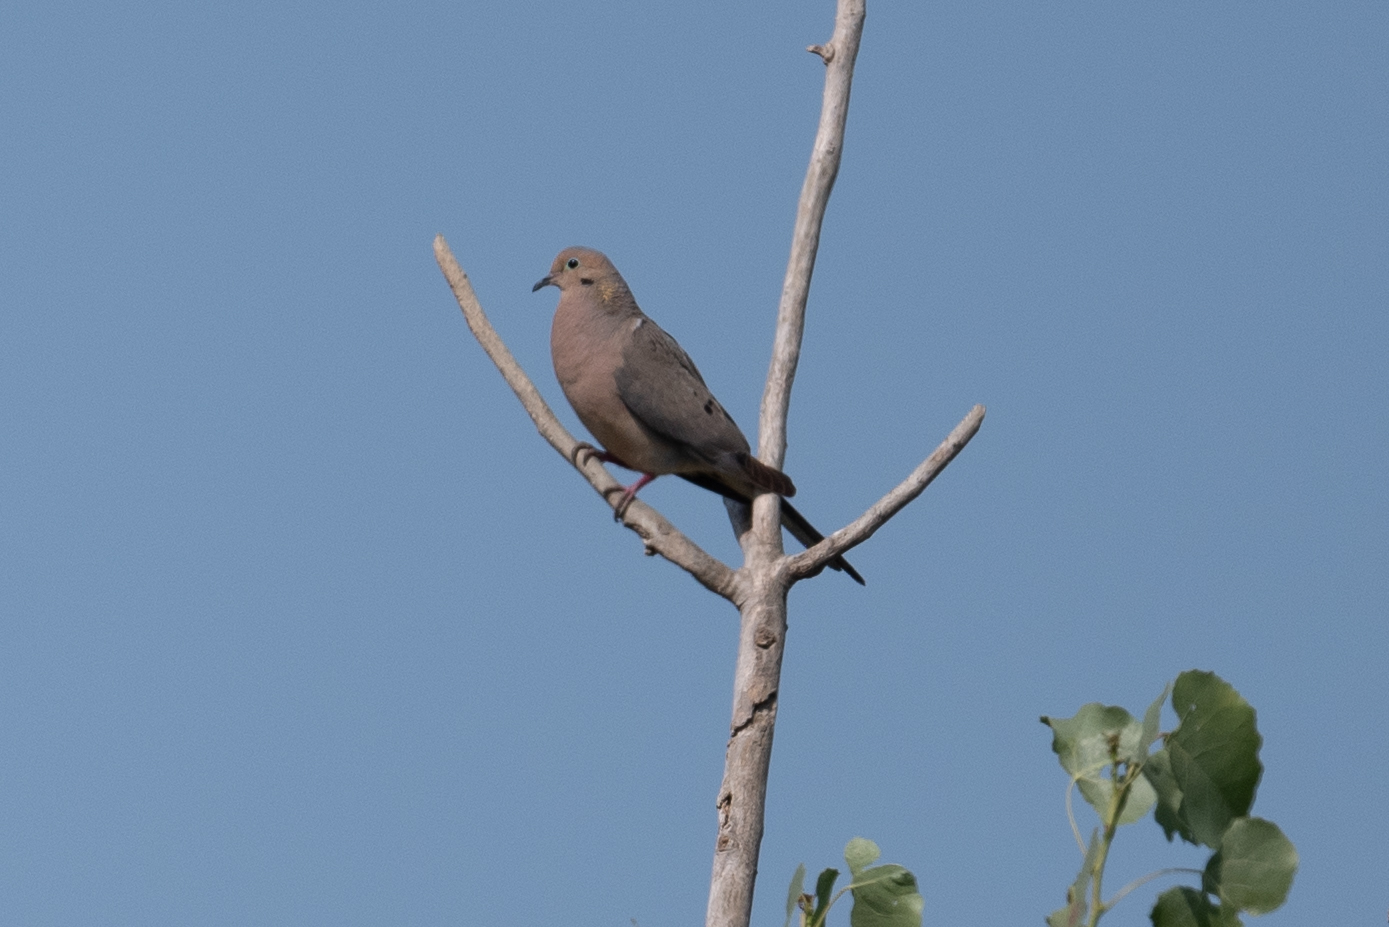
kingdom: Animalia
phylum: Chordata
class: Aves
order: Columbiformes
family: Columbidae
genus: Zenaida
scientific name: Zenaida macroura
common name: Mourning dove
